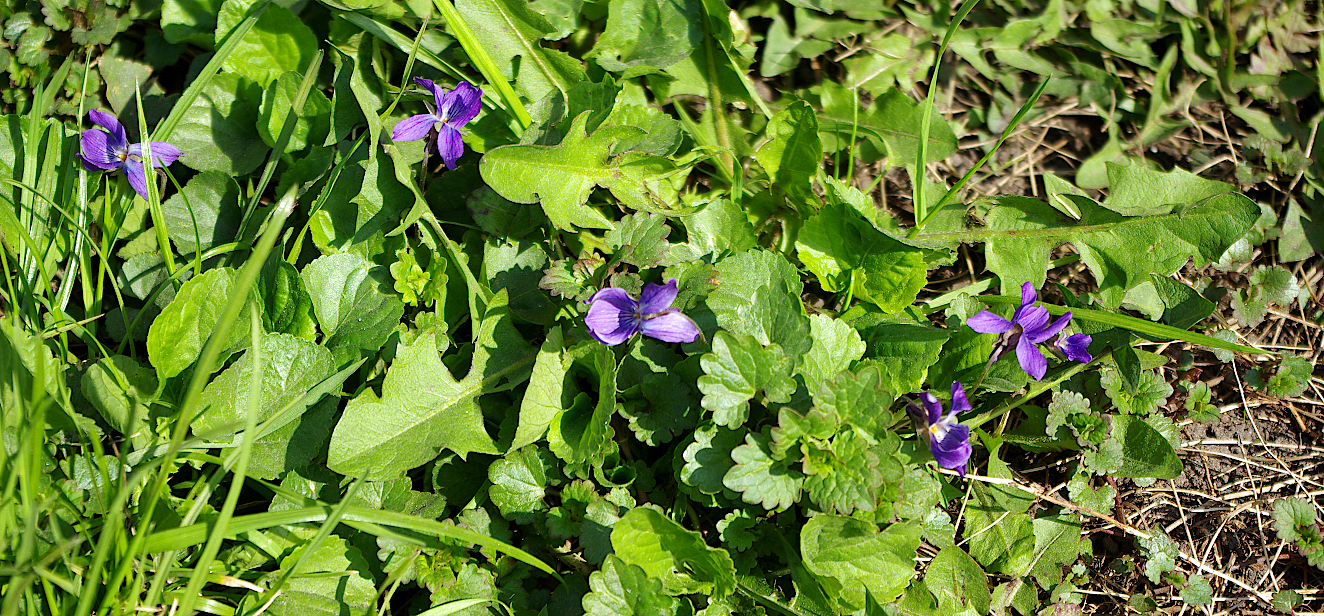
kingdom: Plantae
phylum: Tracheophyta
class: Magnoliopsida
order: Malpighiales
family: Violaceae
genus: Viola
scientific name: Viola odorata
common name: Sweet violet
